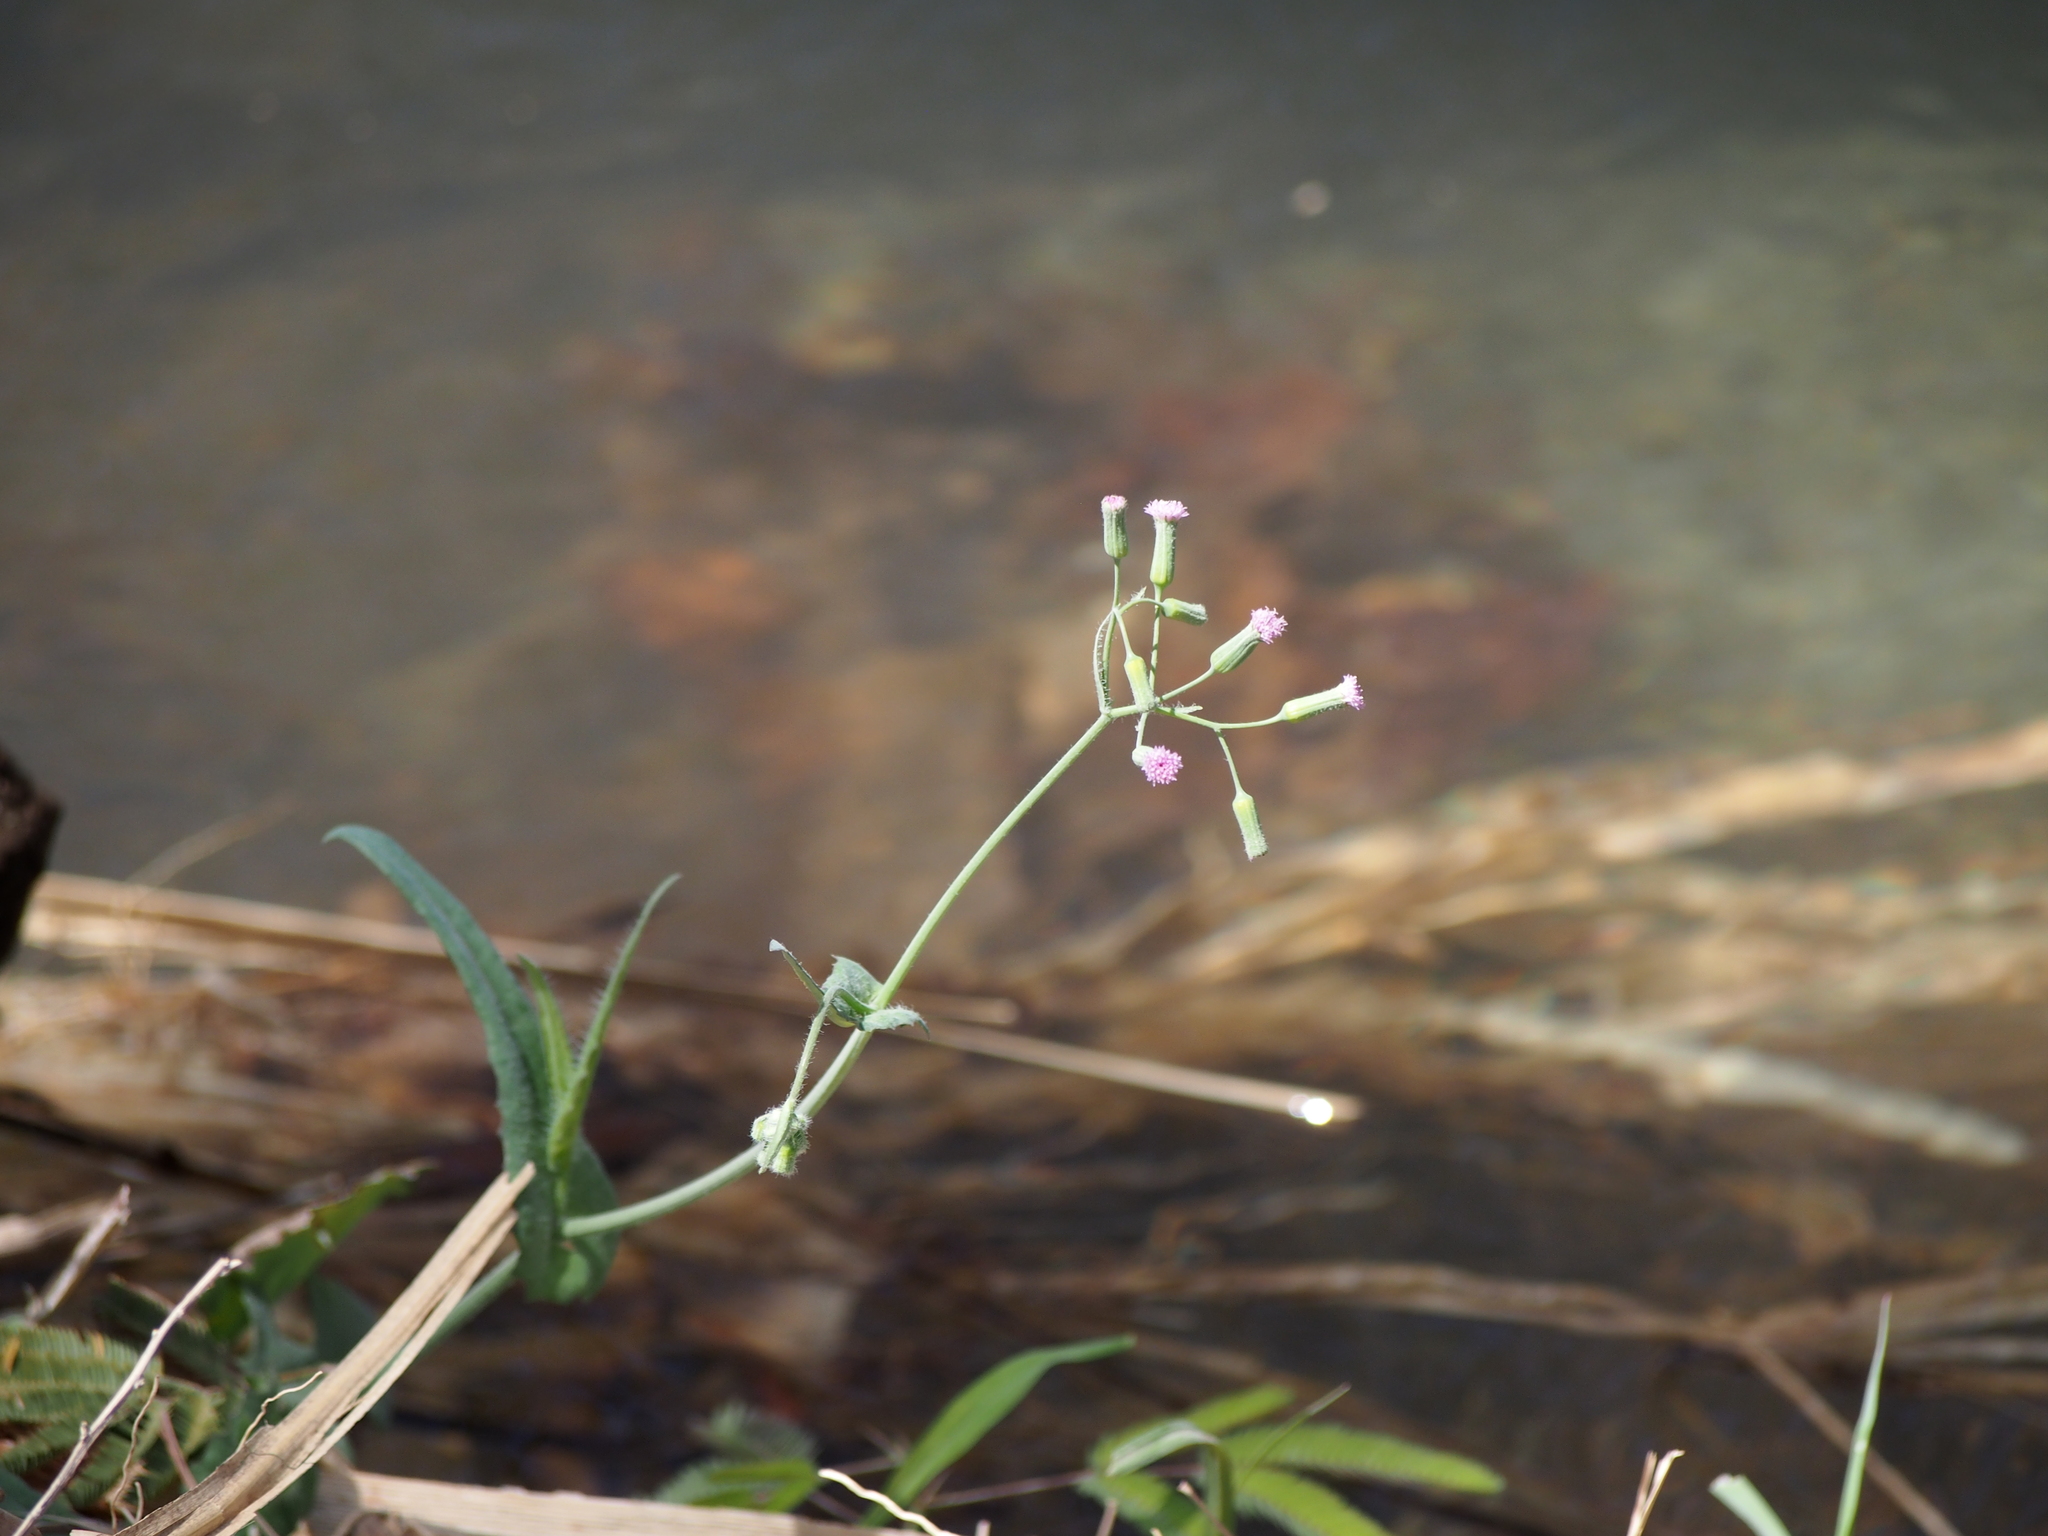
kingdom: Plantae
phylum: Tracheophyta
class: Magnoliopsida
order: Asterales
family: Asteraceae
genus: Emilia
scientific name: Emilia fosbergii
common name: Florida tasselflower
